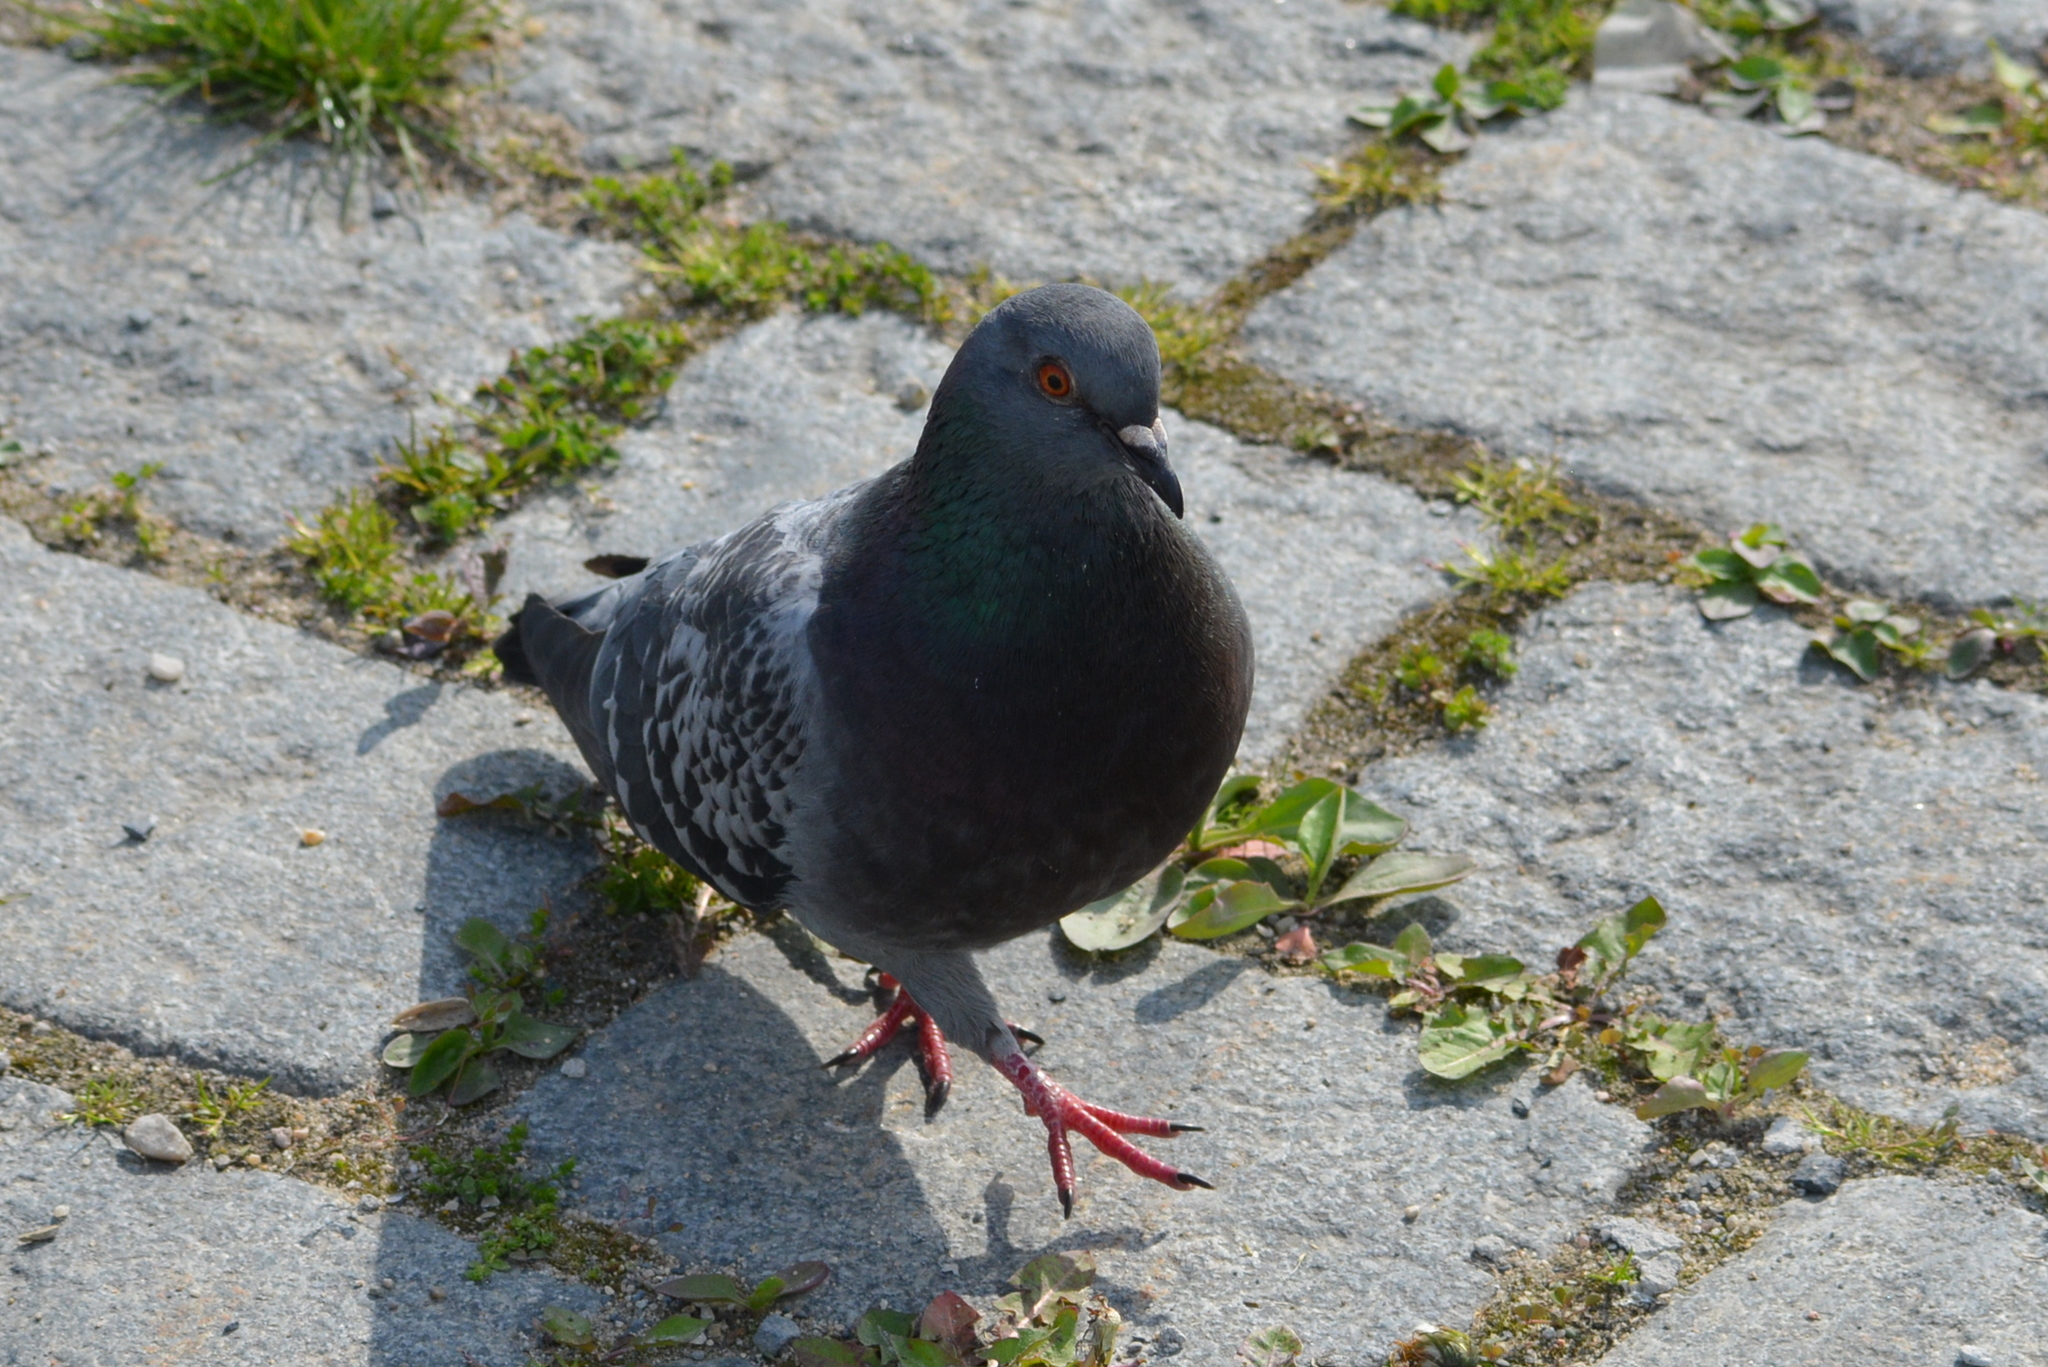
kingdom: Animalia
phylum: Chordata
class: Aves
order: Columbiformes
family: Columbidae
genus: Columba
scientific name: Columba livia
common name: Rock pigeon
